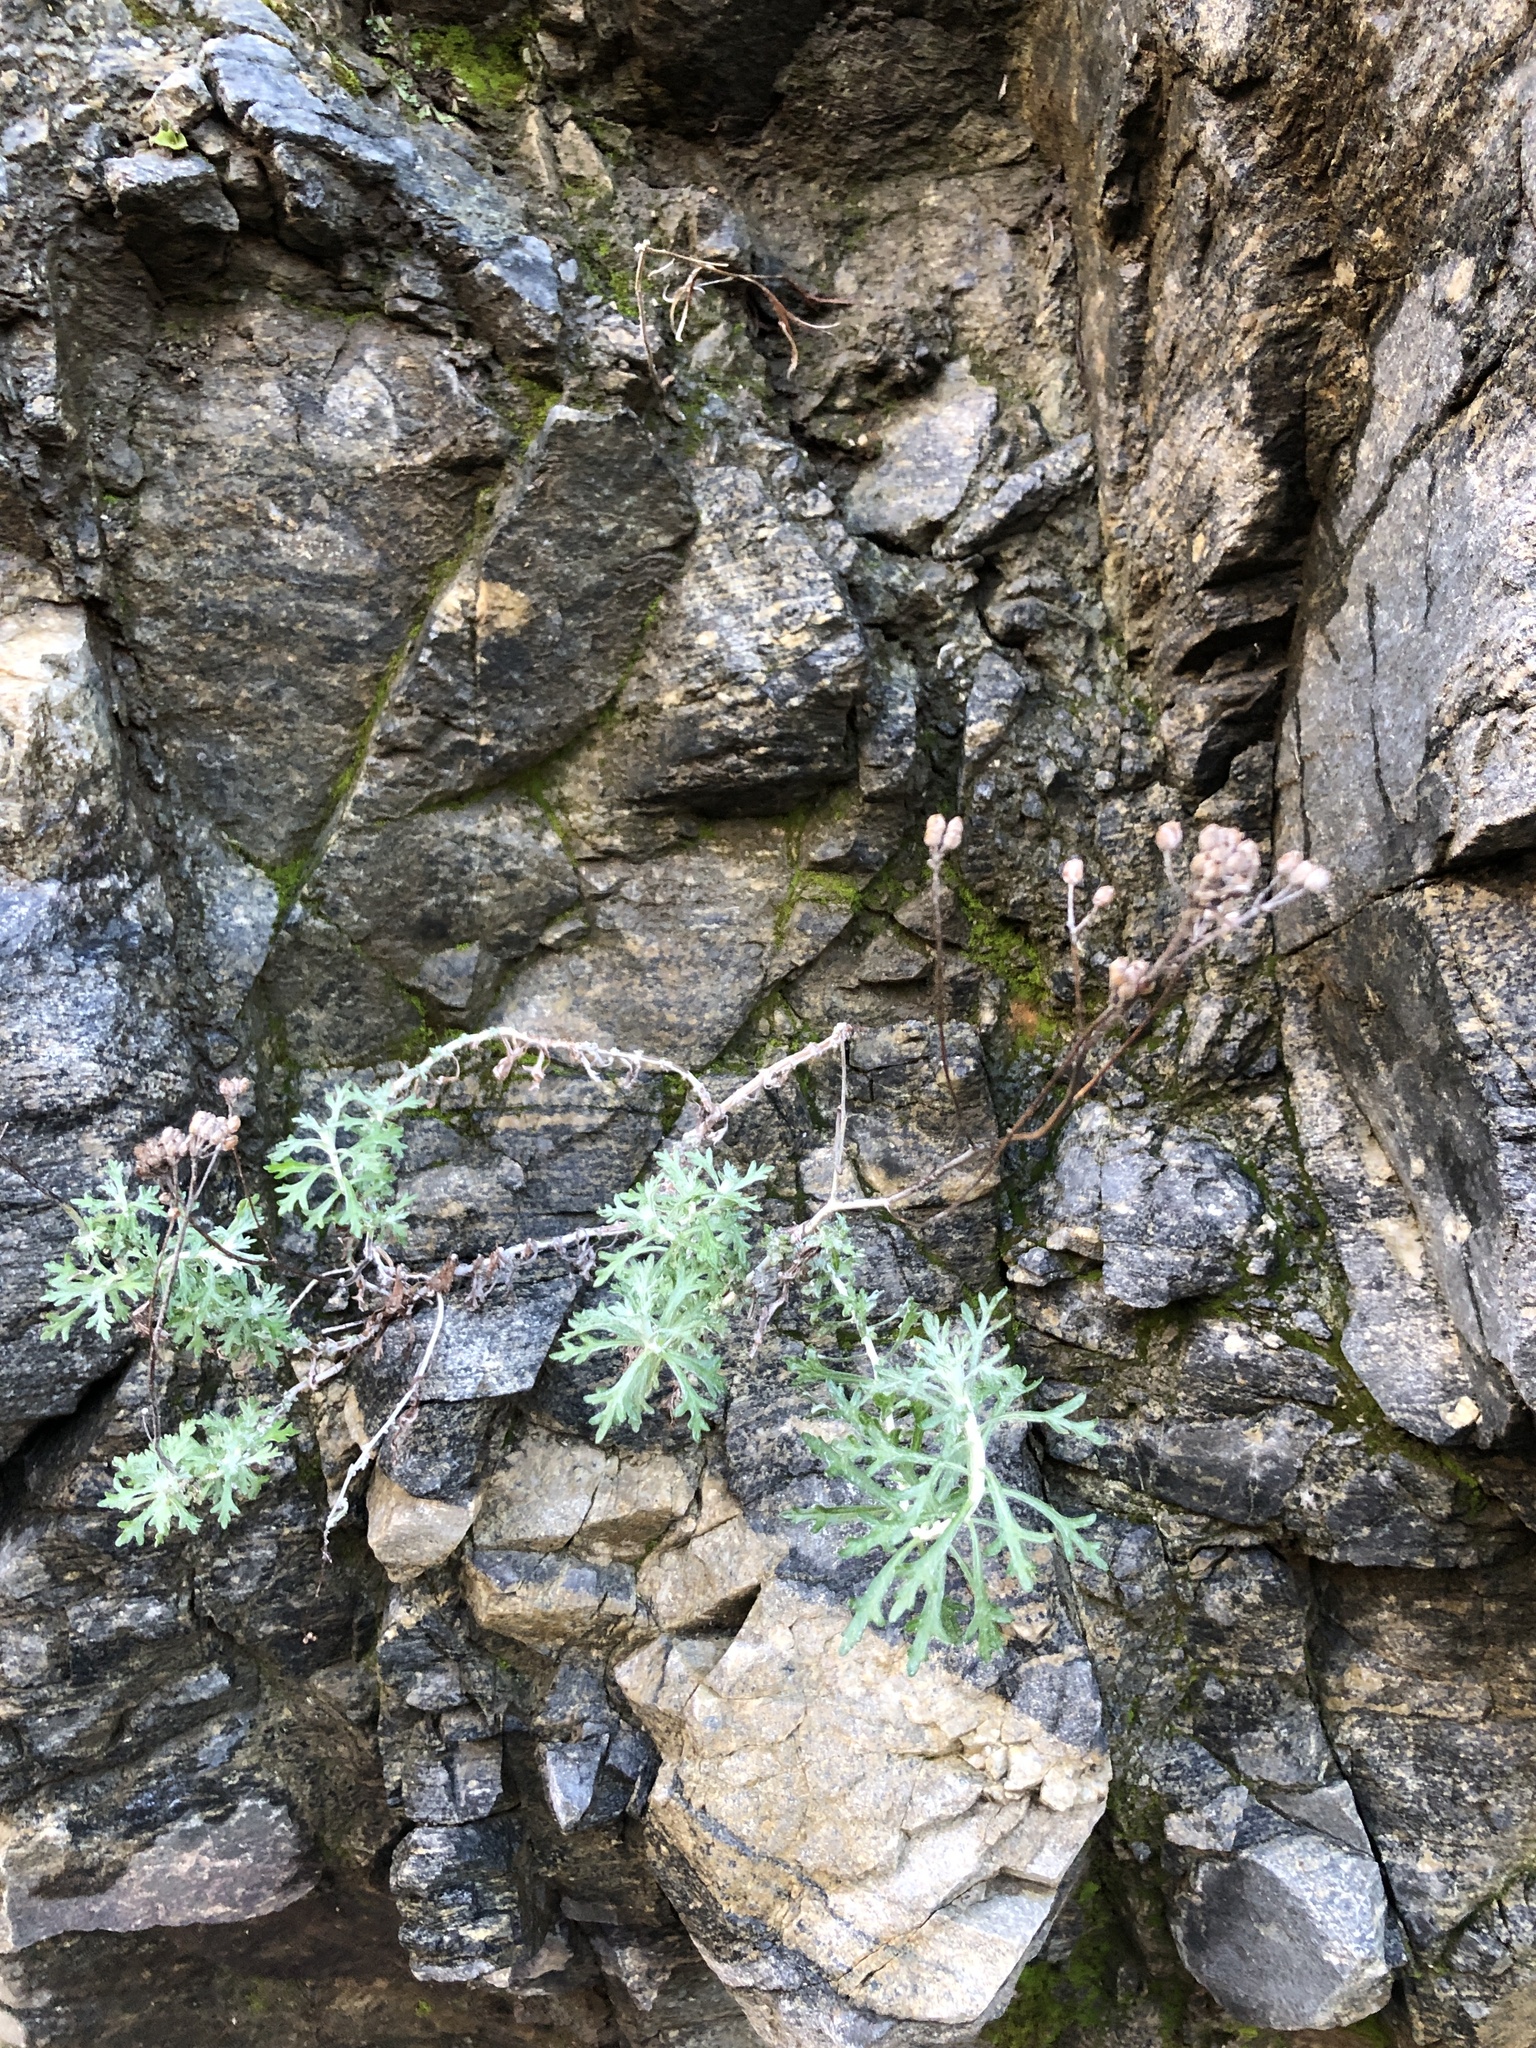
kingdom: Plantae
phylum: Tracheophyta
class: Magnoliopsida
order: Asterales
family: Asteraceae
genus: Eriophyllum
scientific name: Eriophyllum confertiflorum
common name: Golden-yarrow
